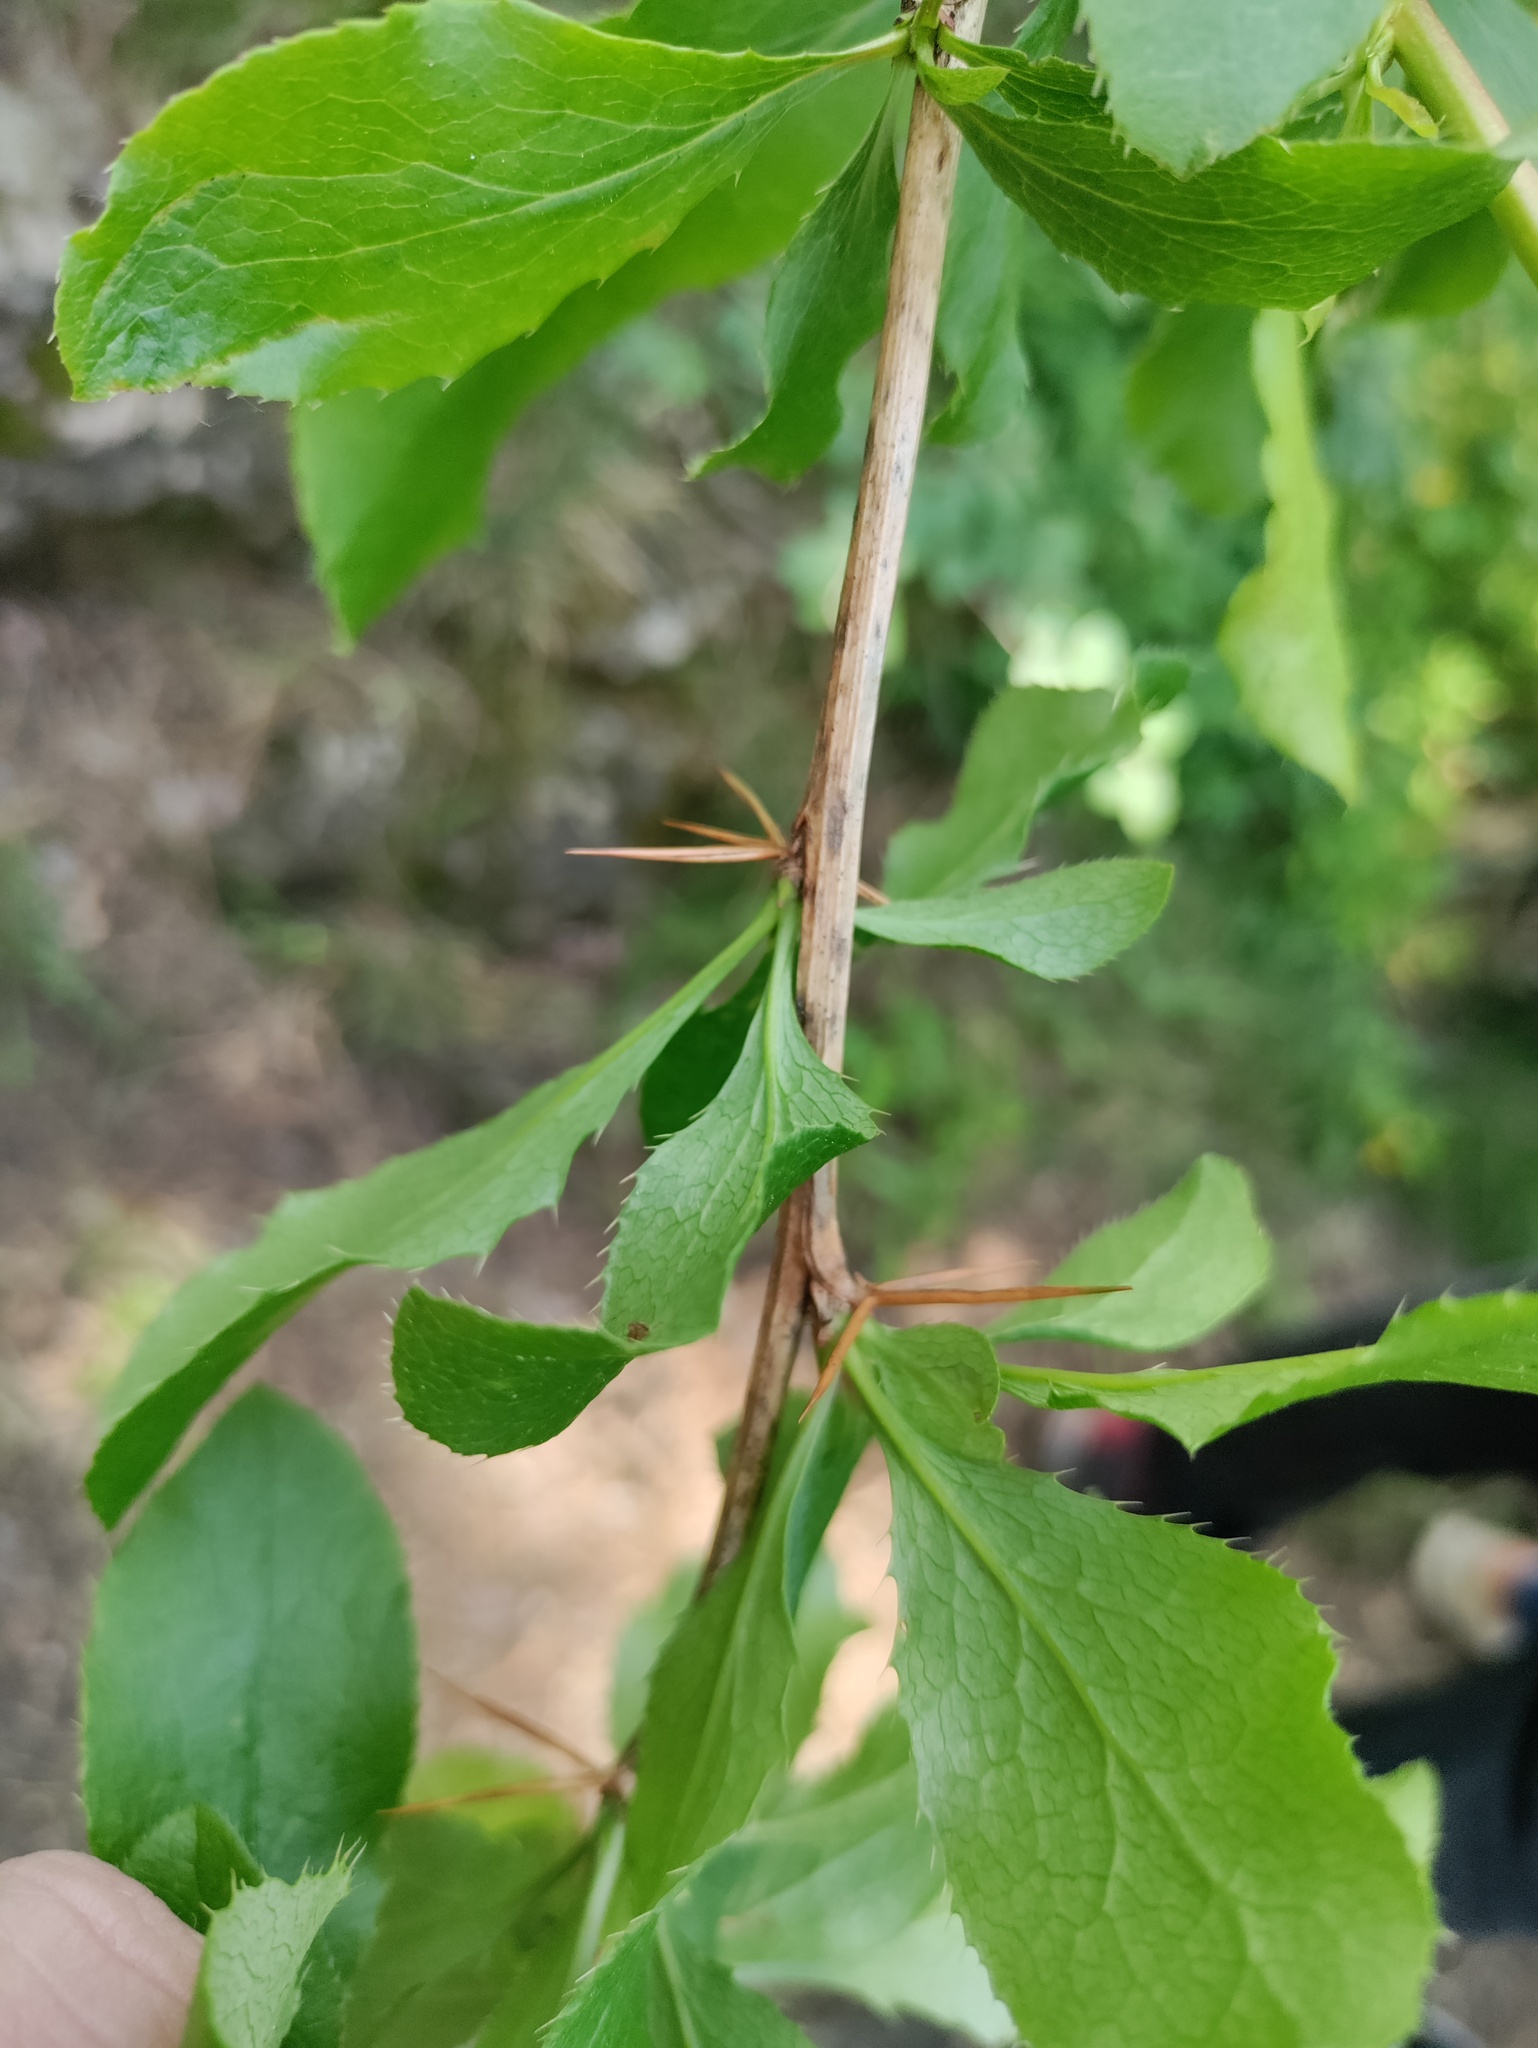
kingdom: Plantae
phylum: Tracheophyta
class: Magnoliopsida
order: Ranunculales
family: Berberidaceae
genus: Berberis
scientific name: Berberis vulgaris
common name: Barberry
